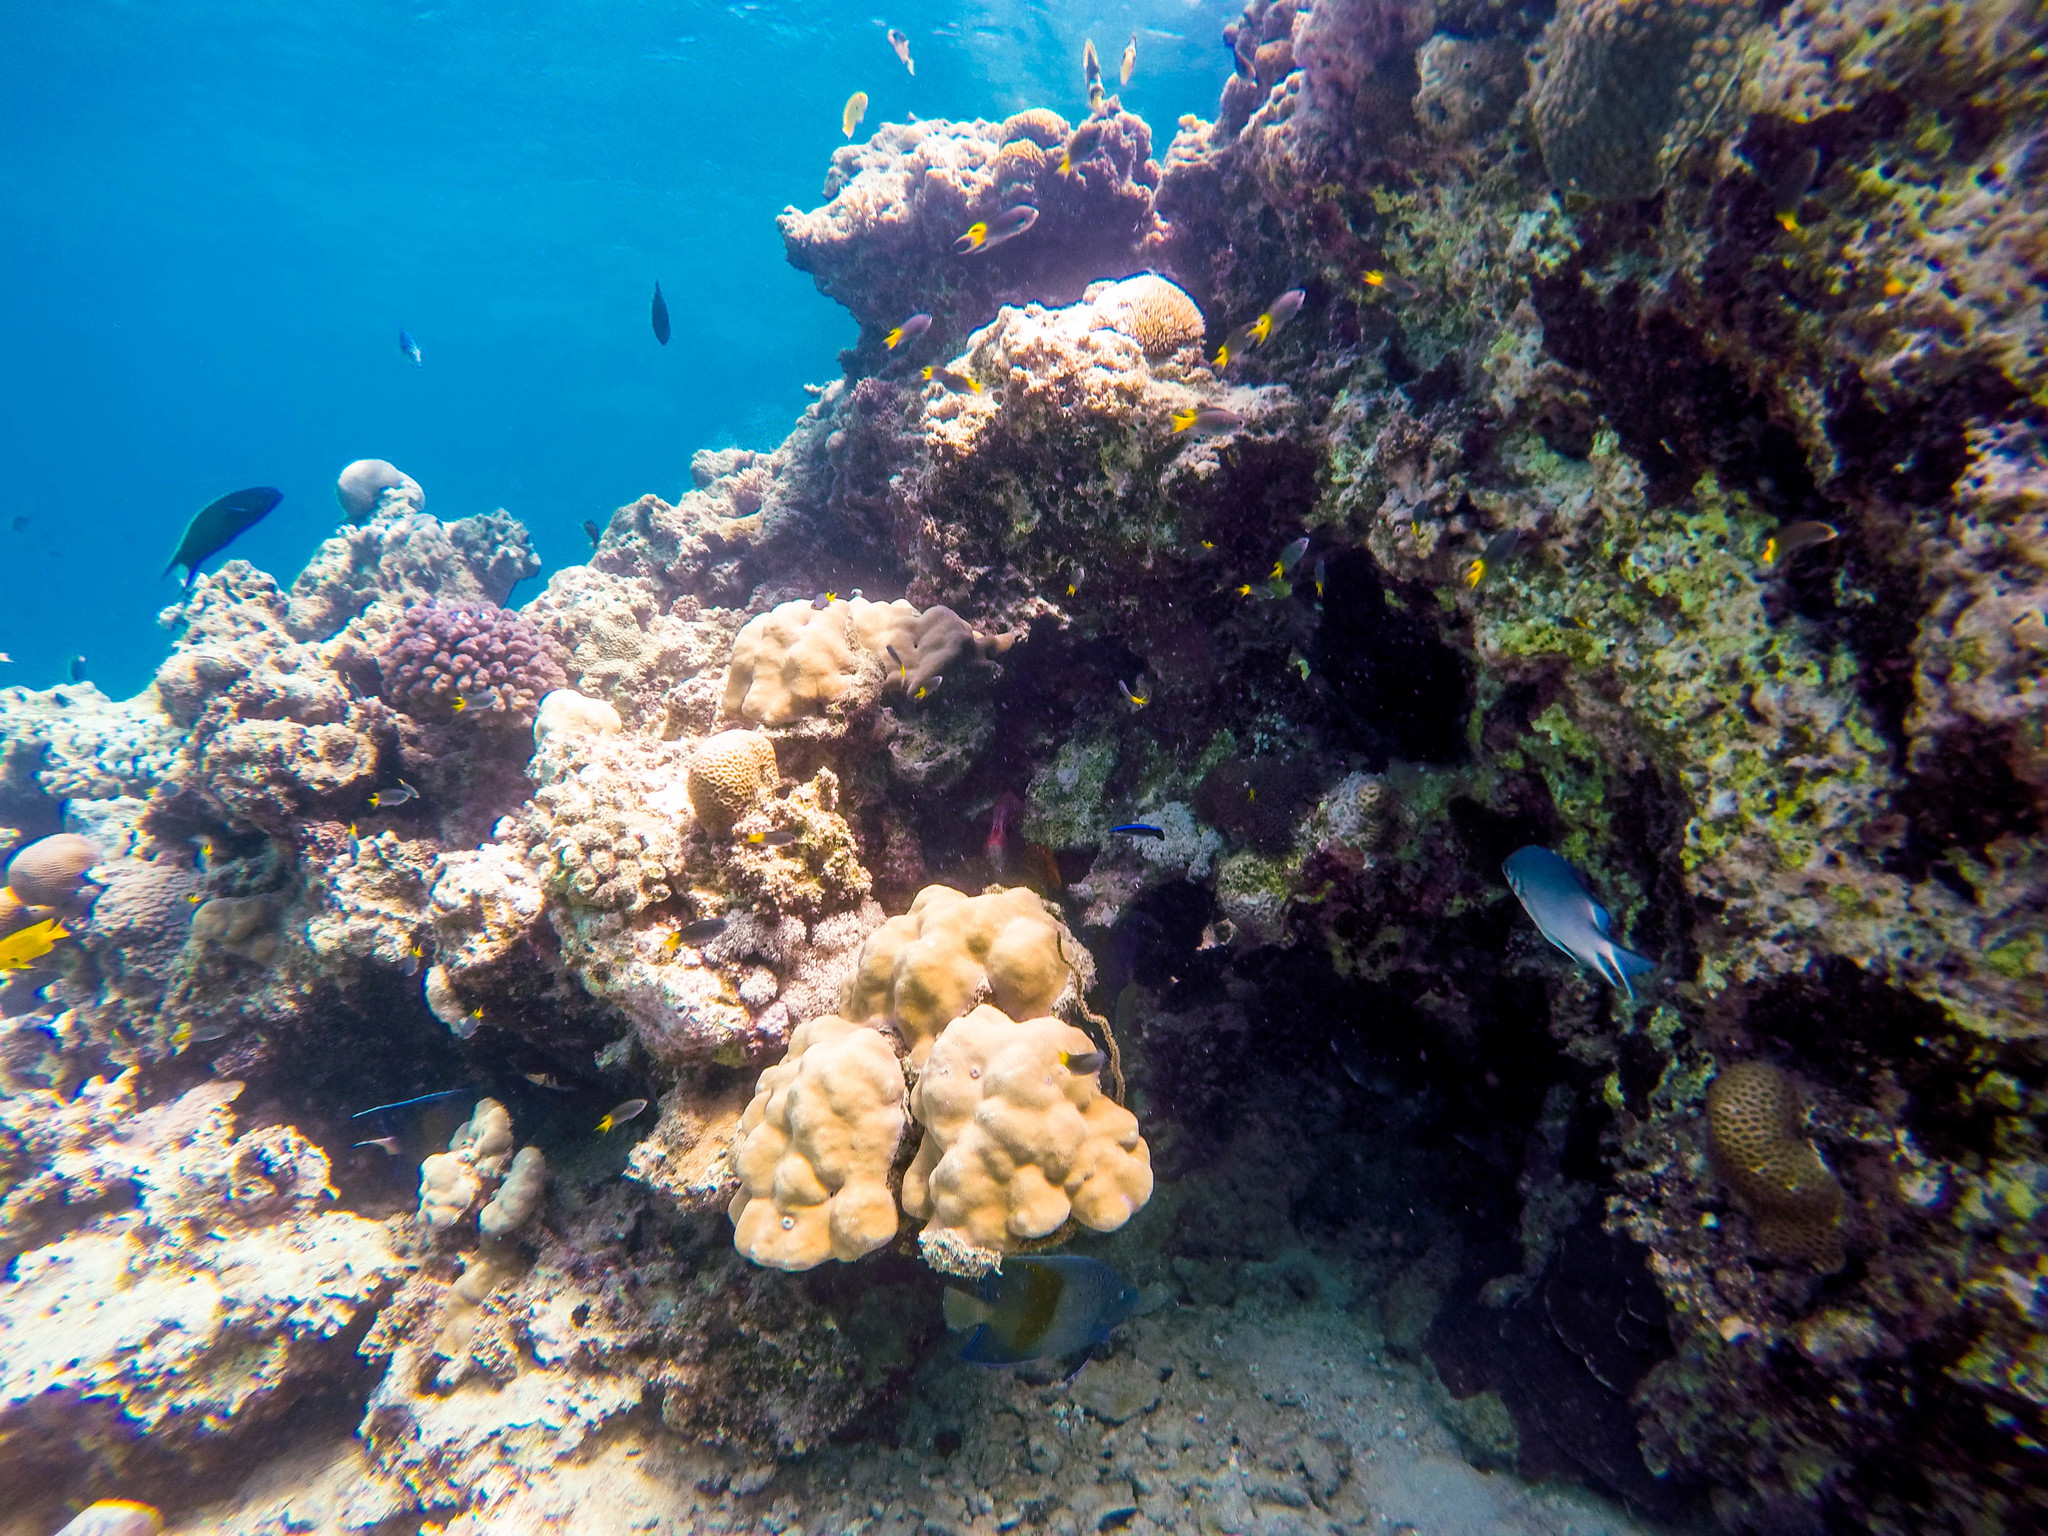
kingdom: Animalia
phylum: Chordata
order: Perciformes
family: Labridae
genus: Thalassoma
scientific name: Thalassoma lunare
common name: Blue wrasse
